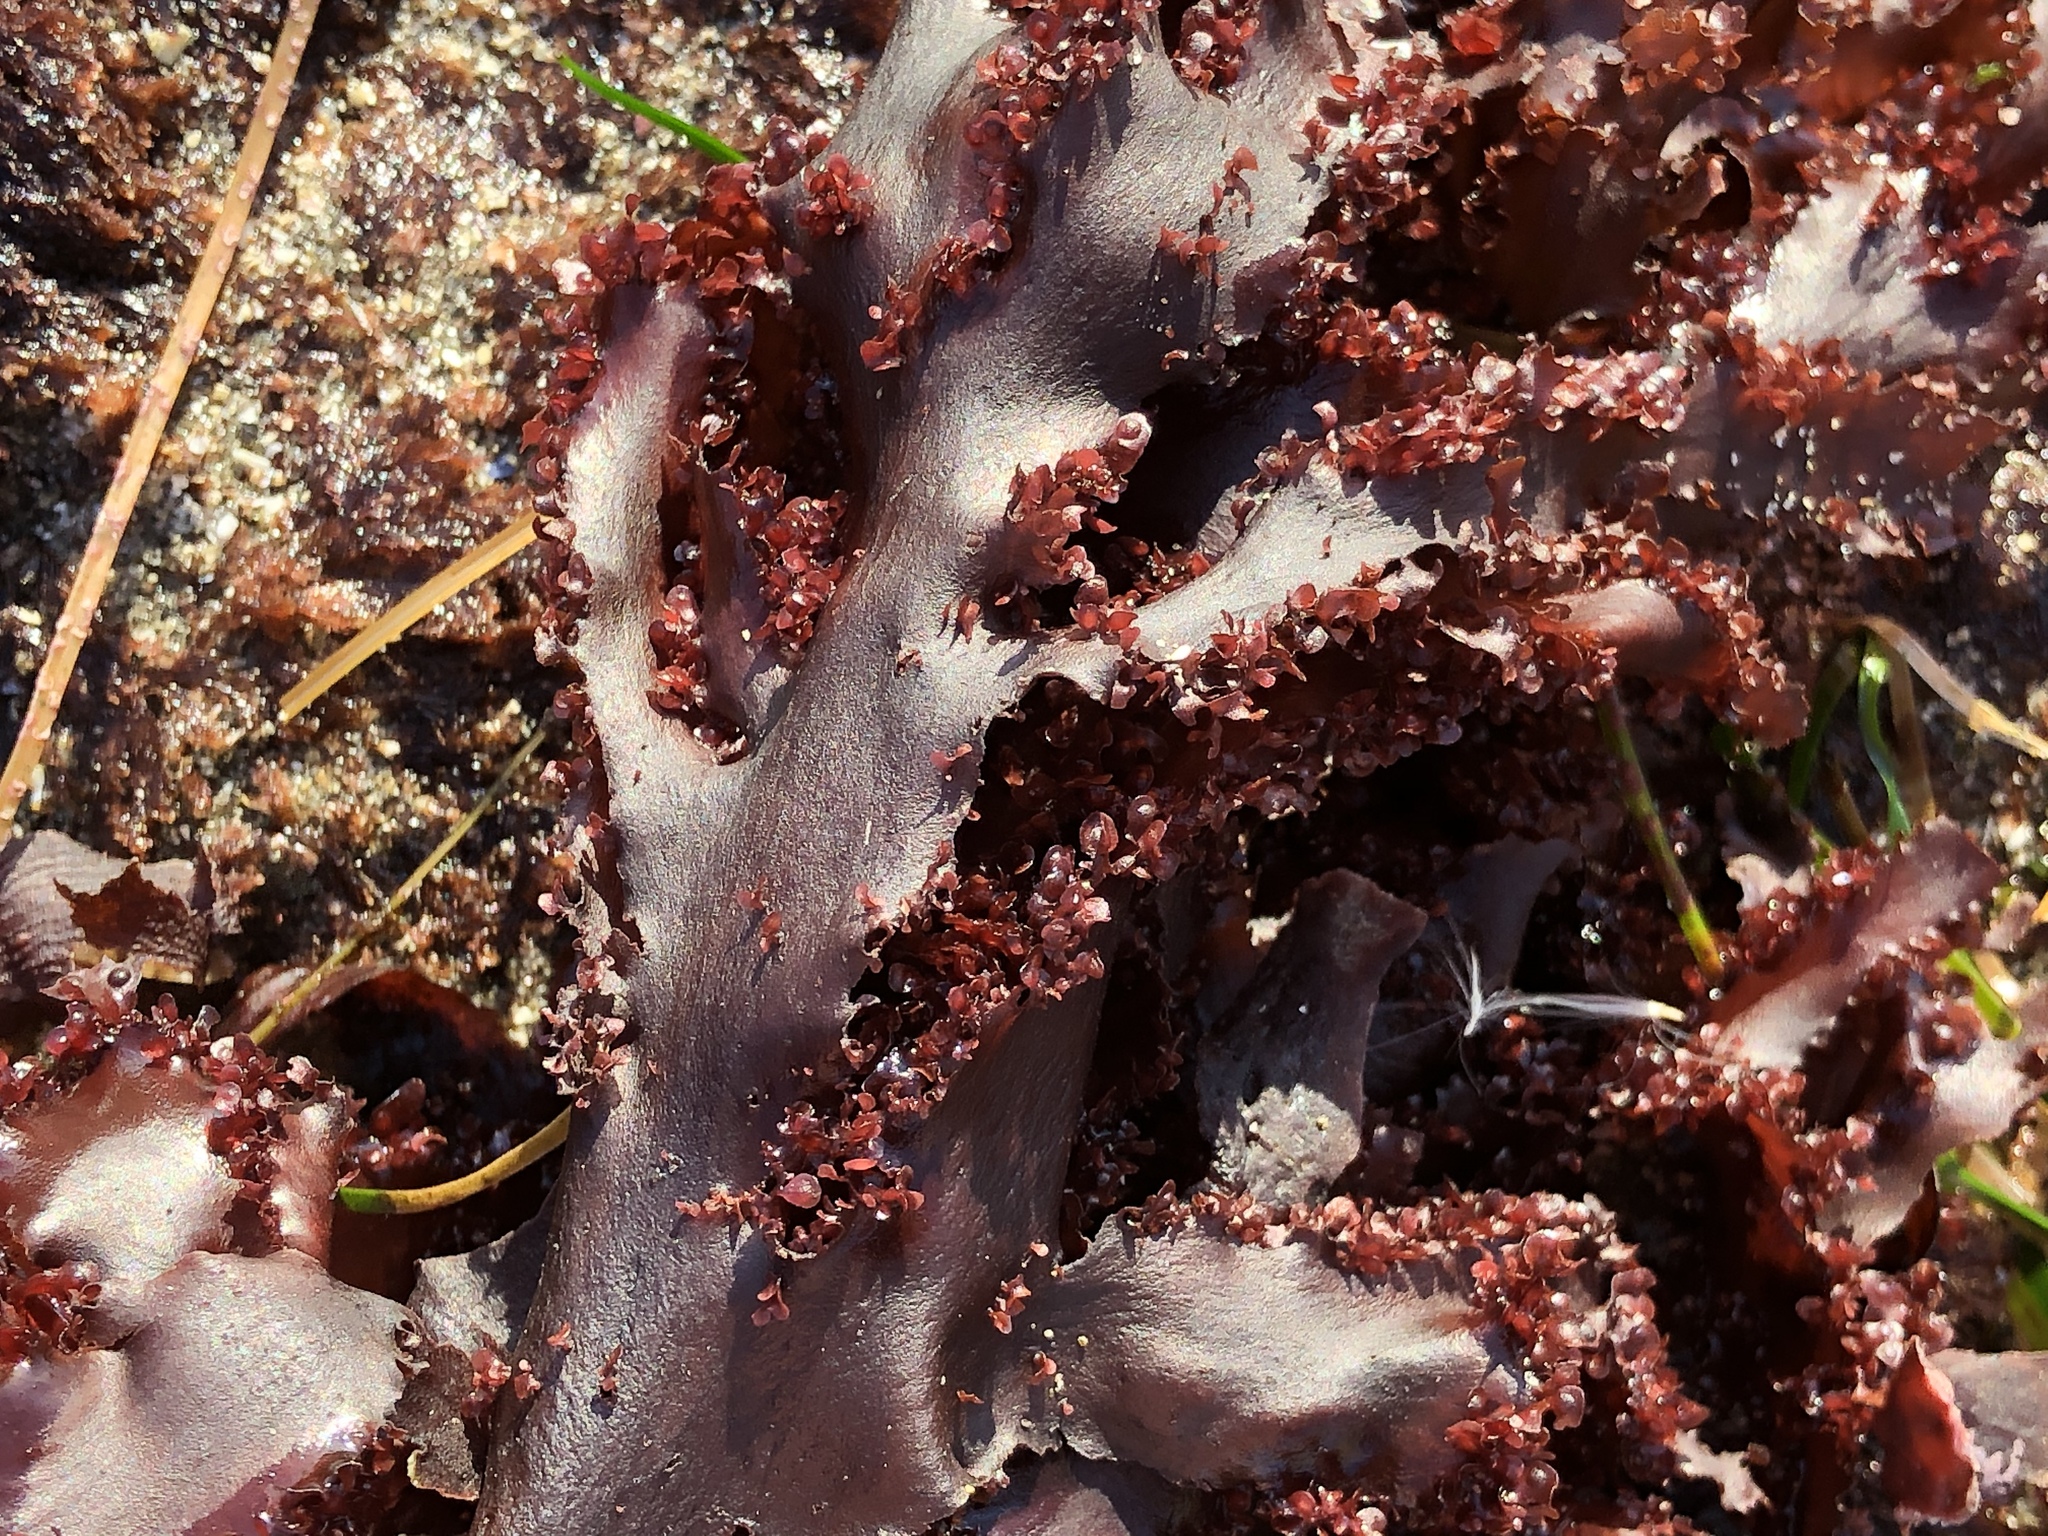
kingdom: Plantae
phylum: Rhodophyta
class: Florideophyceae
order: Ceramiales
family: Delesseriaceae
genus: Cryptopleura
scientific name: Cryptopleura ruprechtiana
